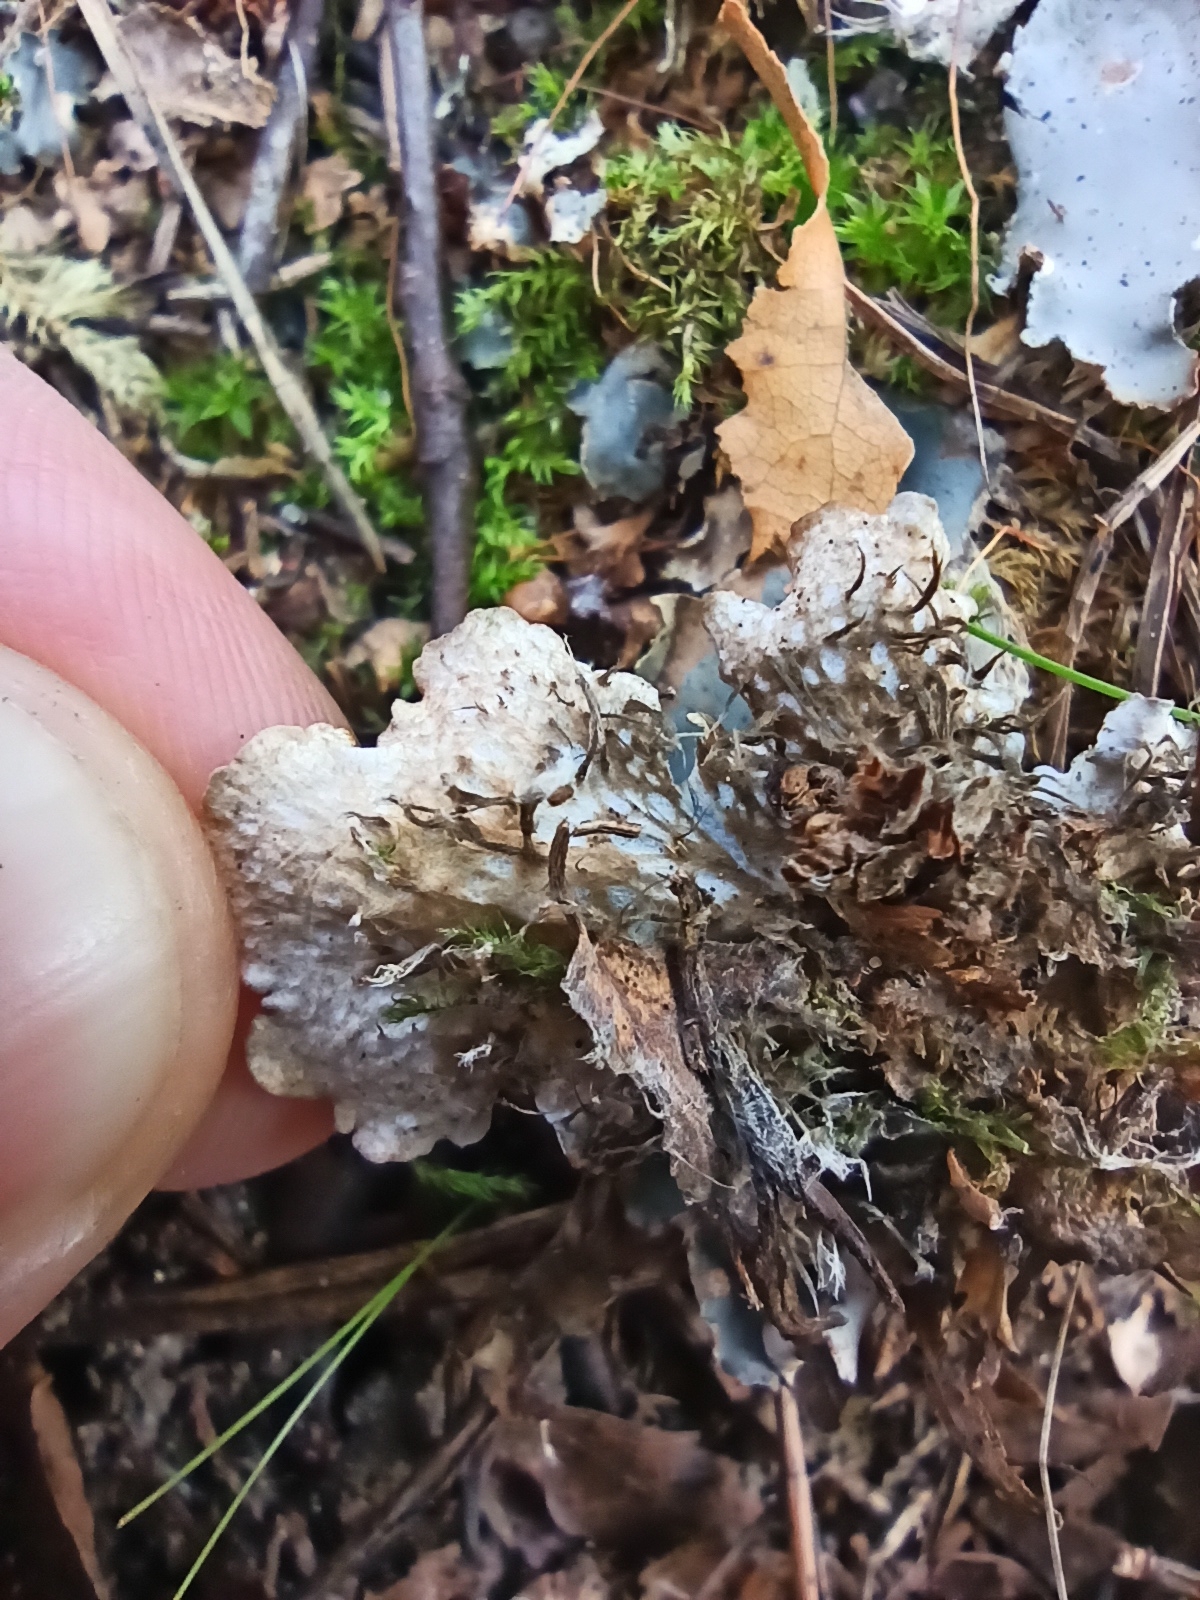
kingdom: Fungi
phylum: Ascomycota
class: Lecanoromycetes
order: Peltigerales
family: Peltigeraceae
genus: Peltigera
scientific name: Peltigera polydactylon
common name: Many-fruited pelt lichen
